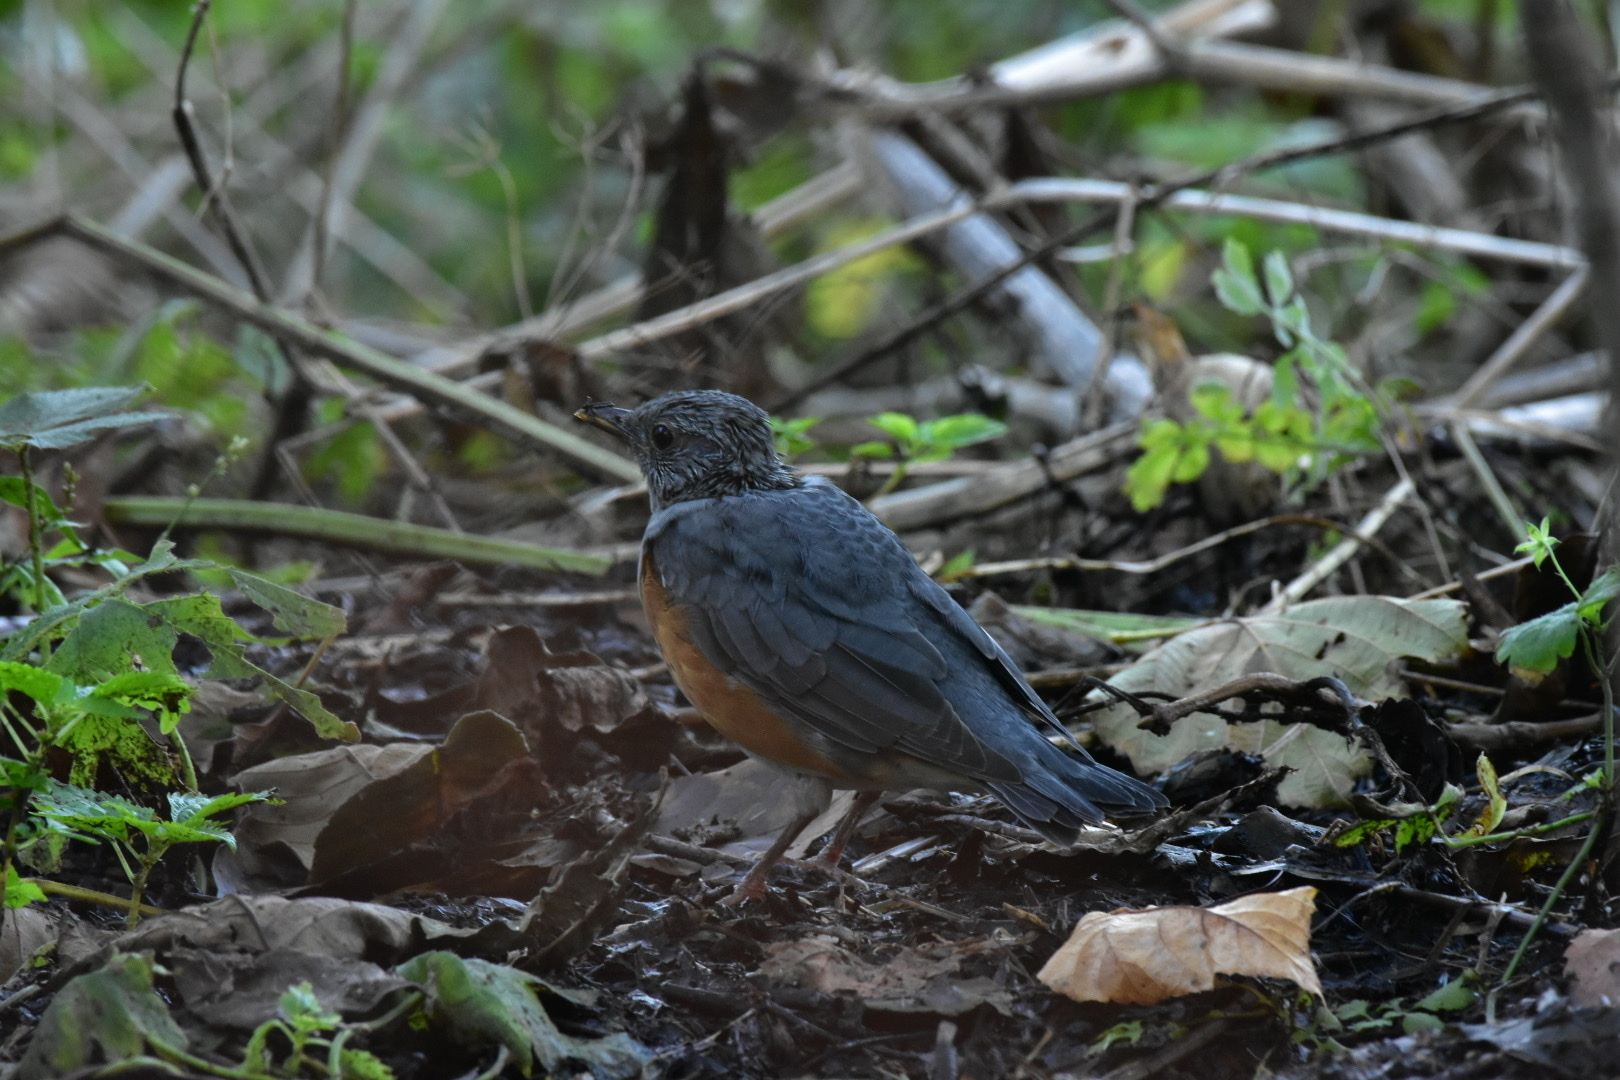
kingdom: Animalia
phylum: Chordata
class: Aves
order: Passeriformes
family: Turdidae
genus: Turdus
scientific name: Turdus hortulorum
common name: Grey-backed thrush
